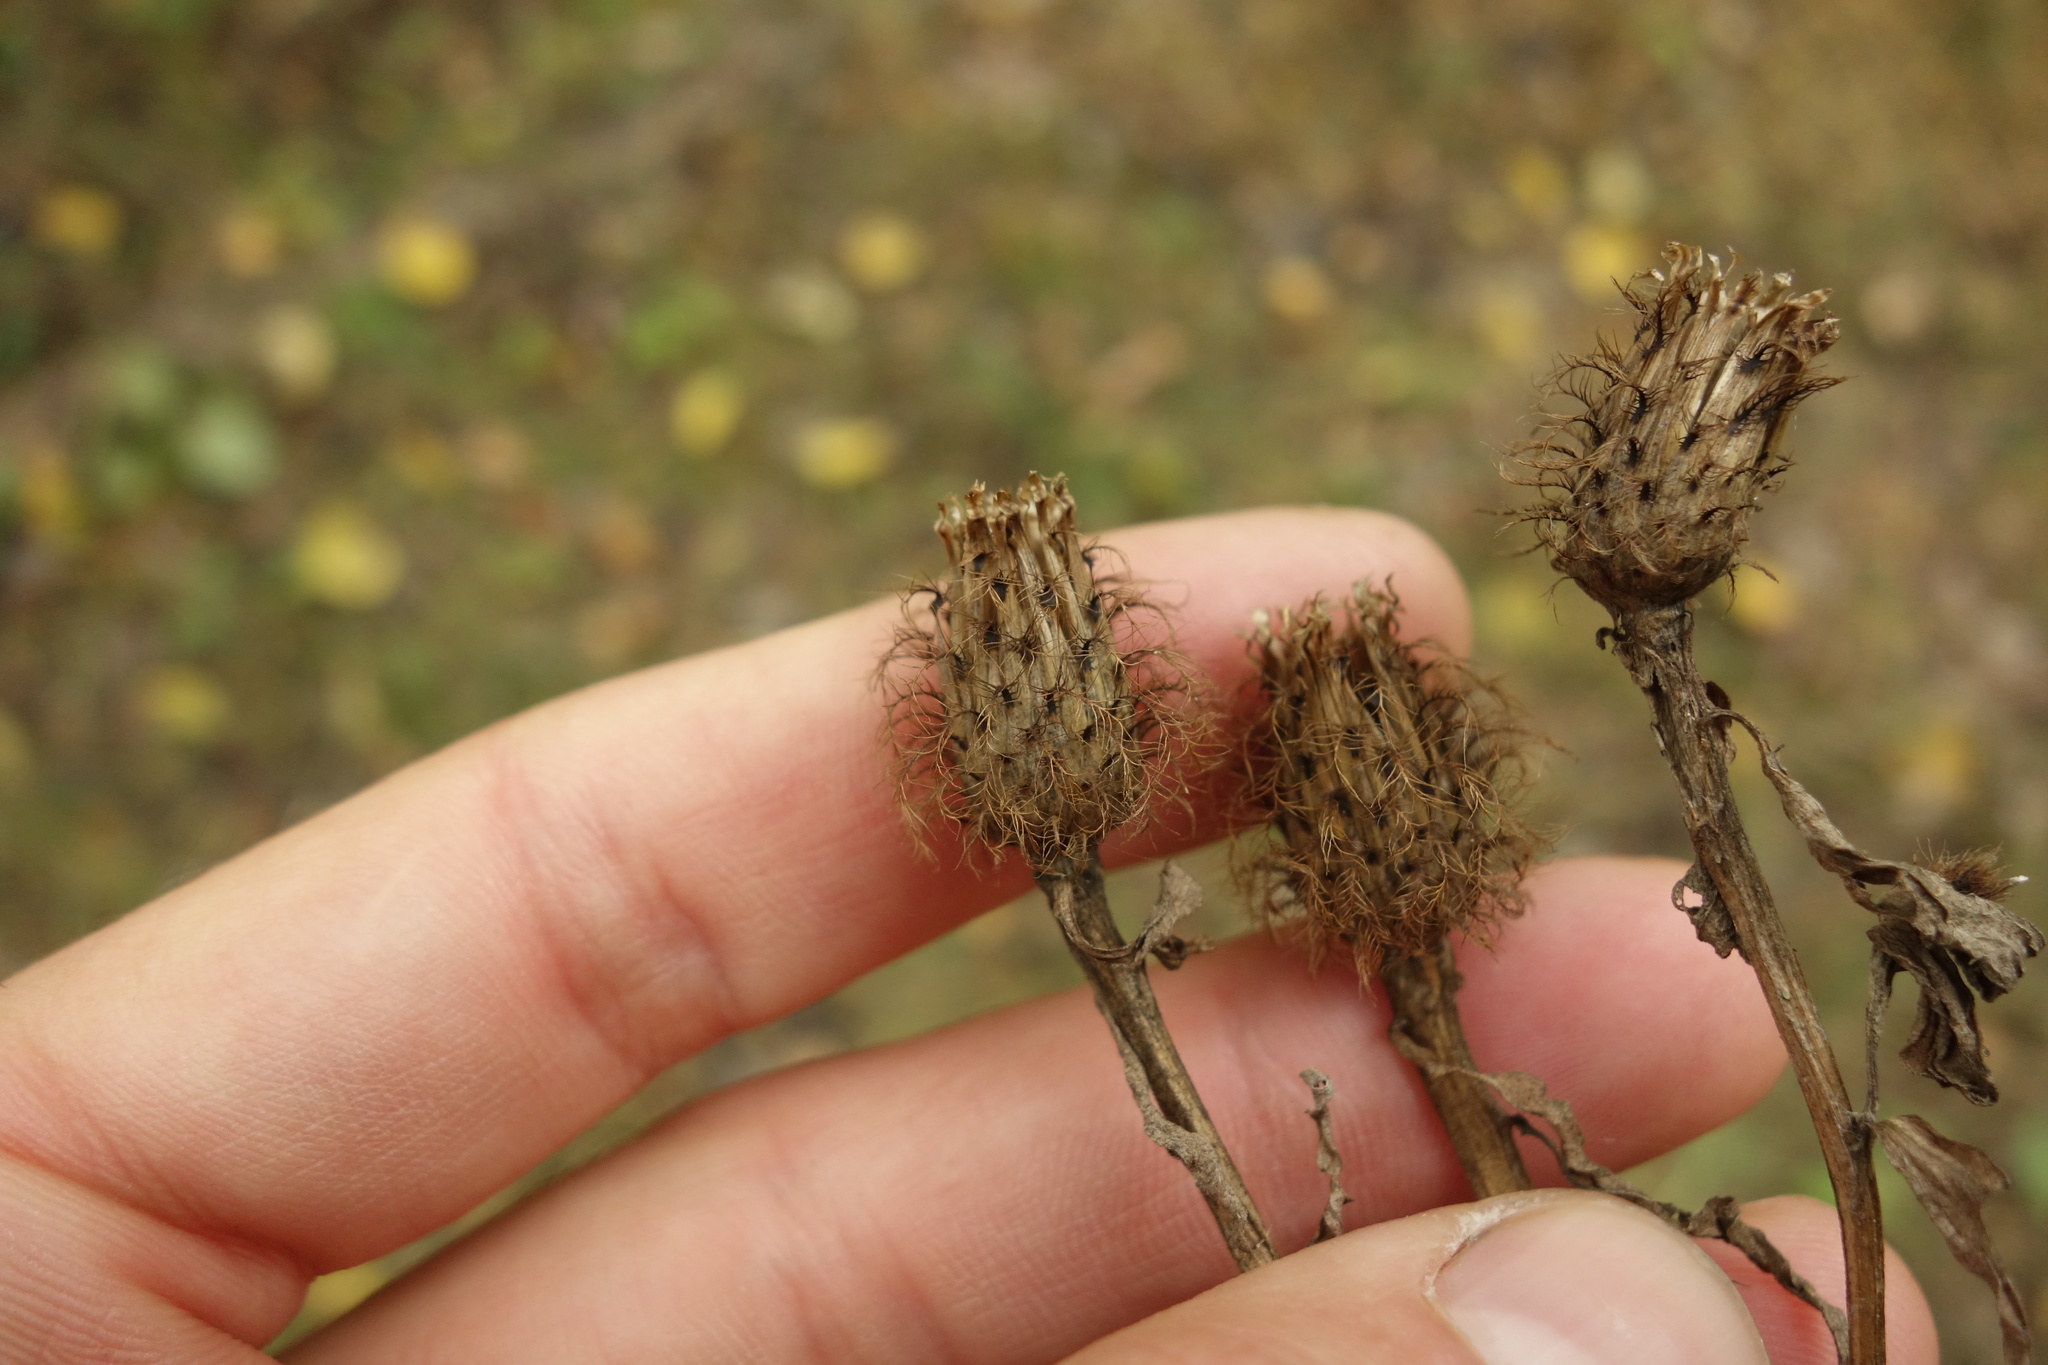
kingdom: Plantae
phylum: Tracheophyta
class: Magnoliopsida
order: Asterales
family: Asteraceae
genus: Centaurea
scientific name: Centaurea pseudophrygia
